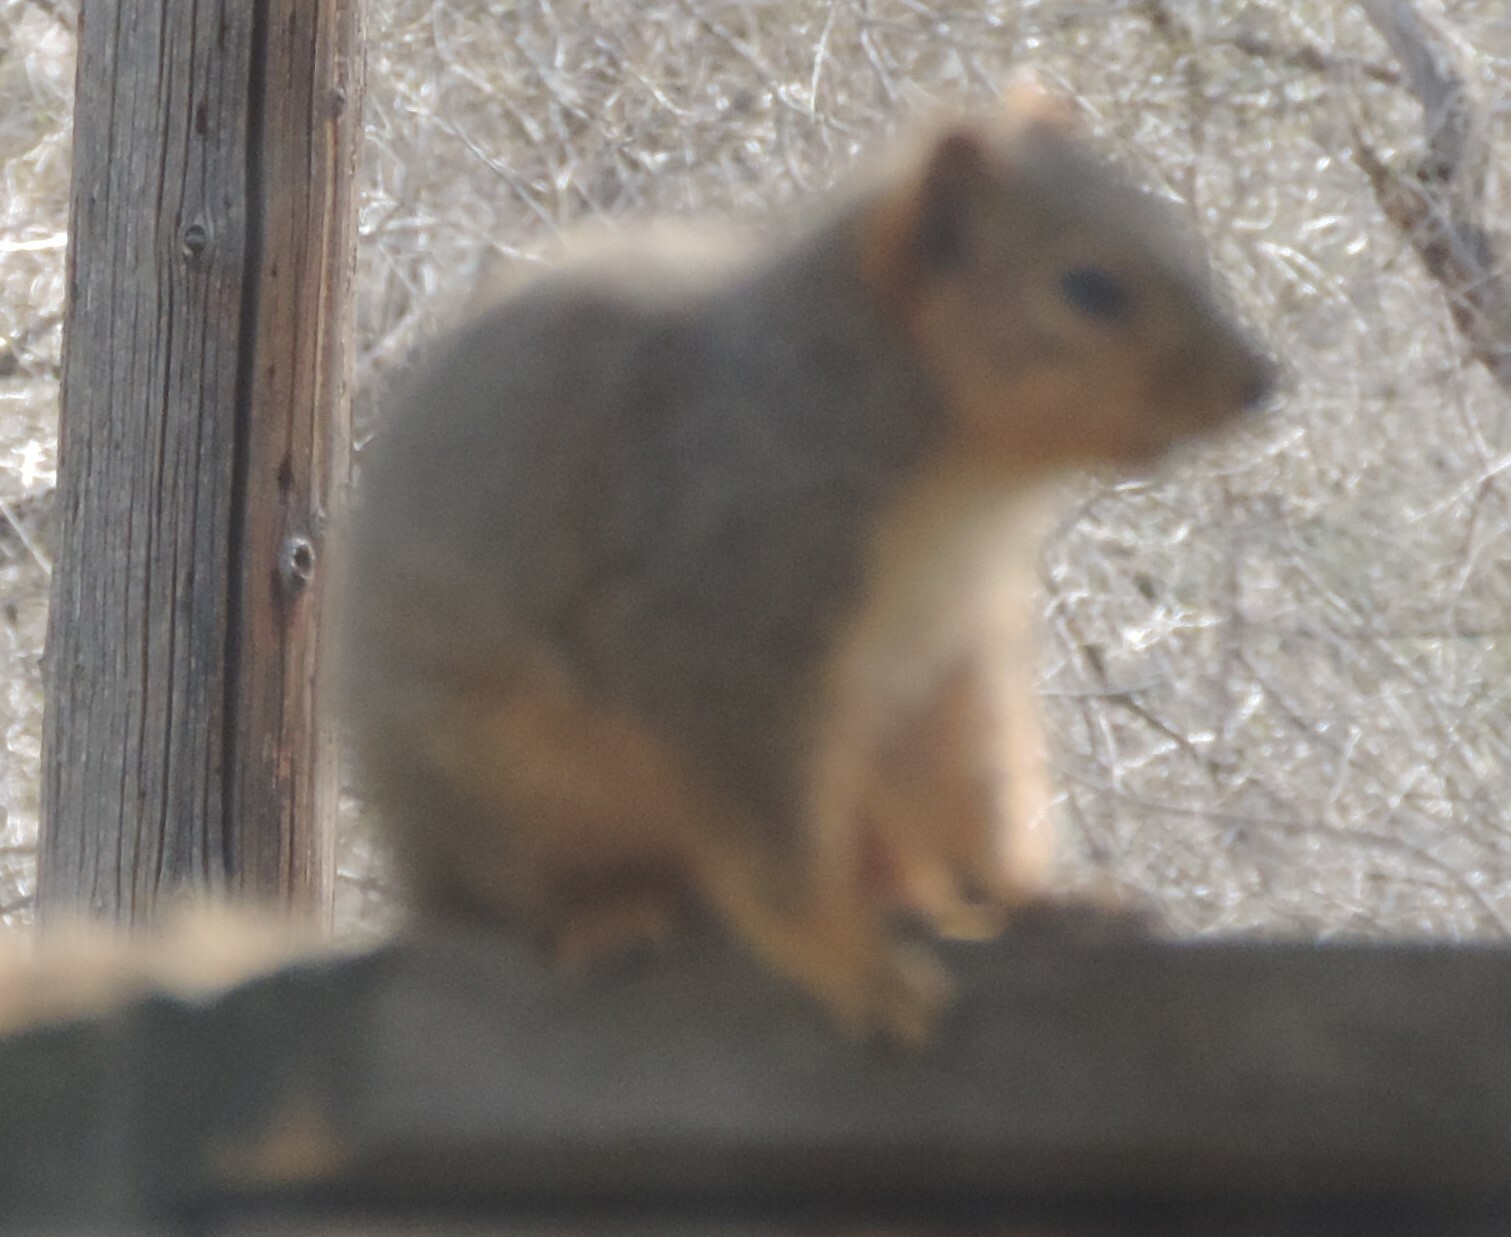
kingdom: Animalia
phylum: Chordata
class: Mammalia
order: Rodentia
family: Sciuridae
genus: Sciurus
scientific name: Sciurus niger
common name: Fox squirrel
